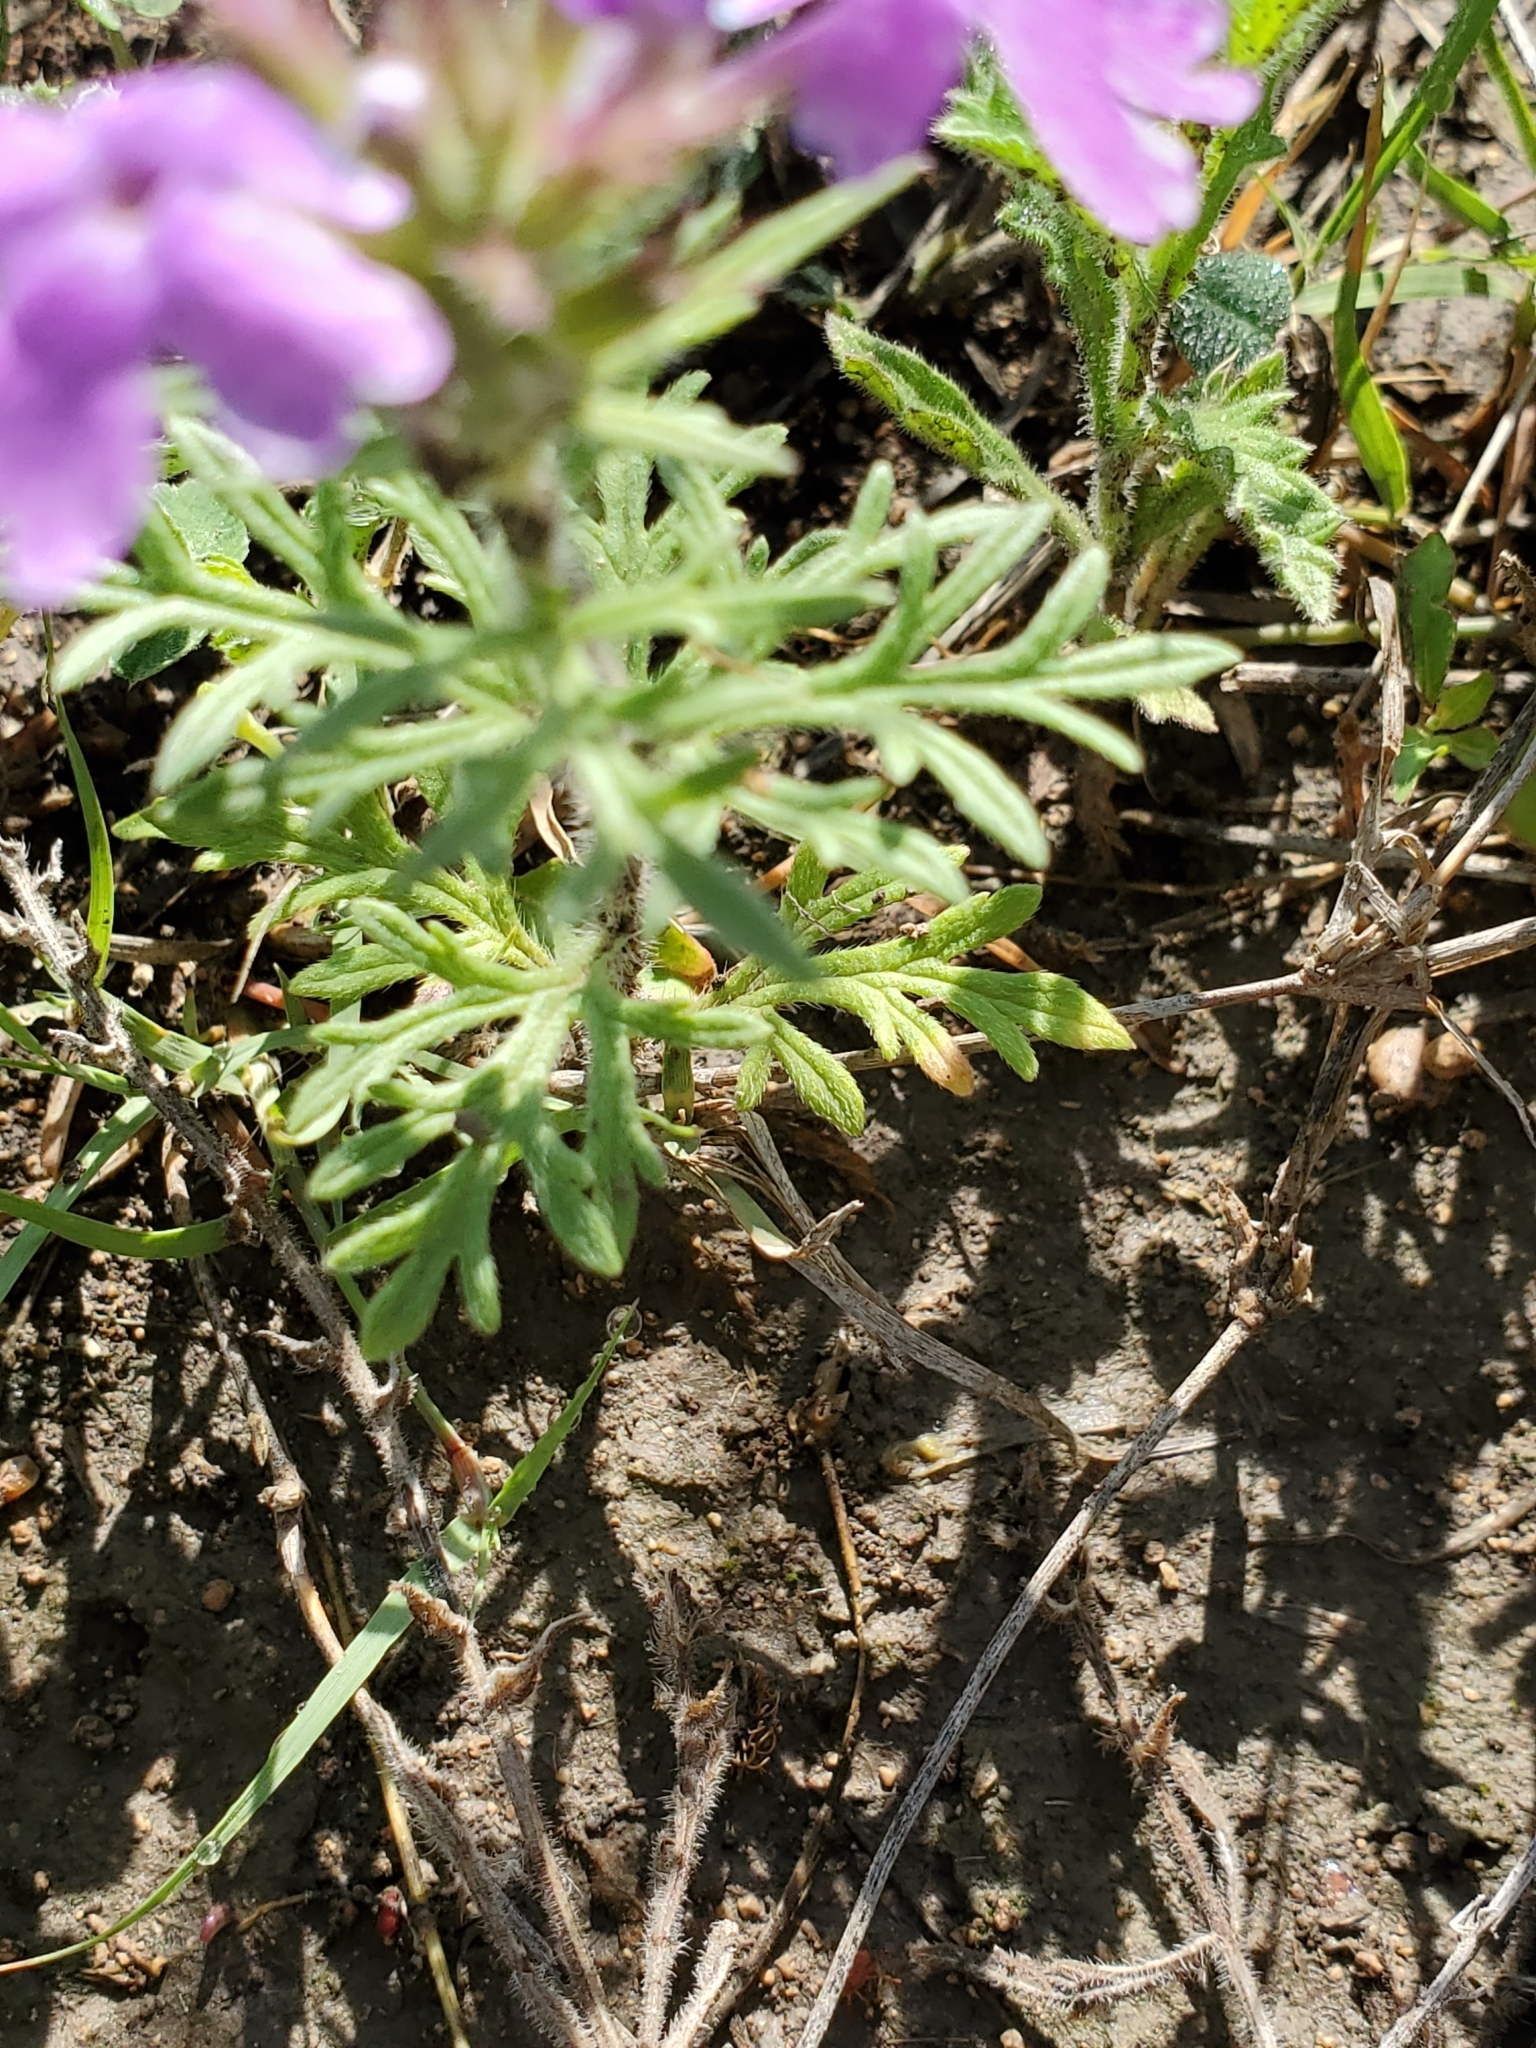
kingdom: Plantae
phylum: Tracheophyta
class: Magnoliopsida
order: Lamiales
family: Verbenaceae
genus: Verbena
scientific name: Verbena bipinnatifida
